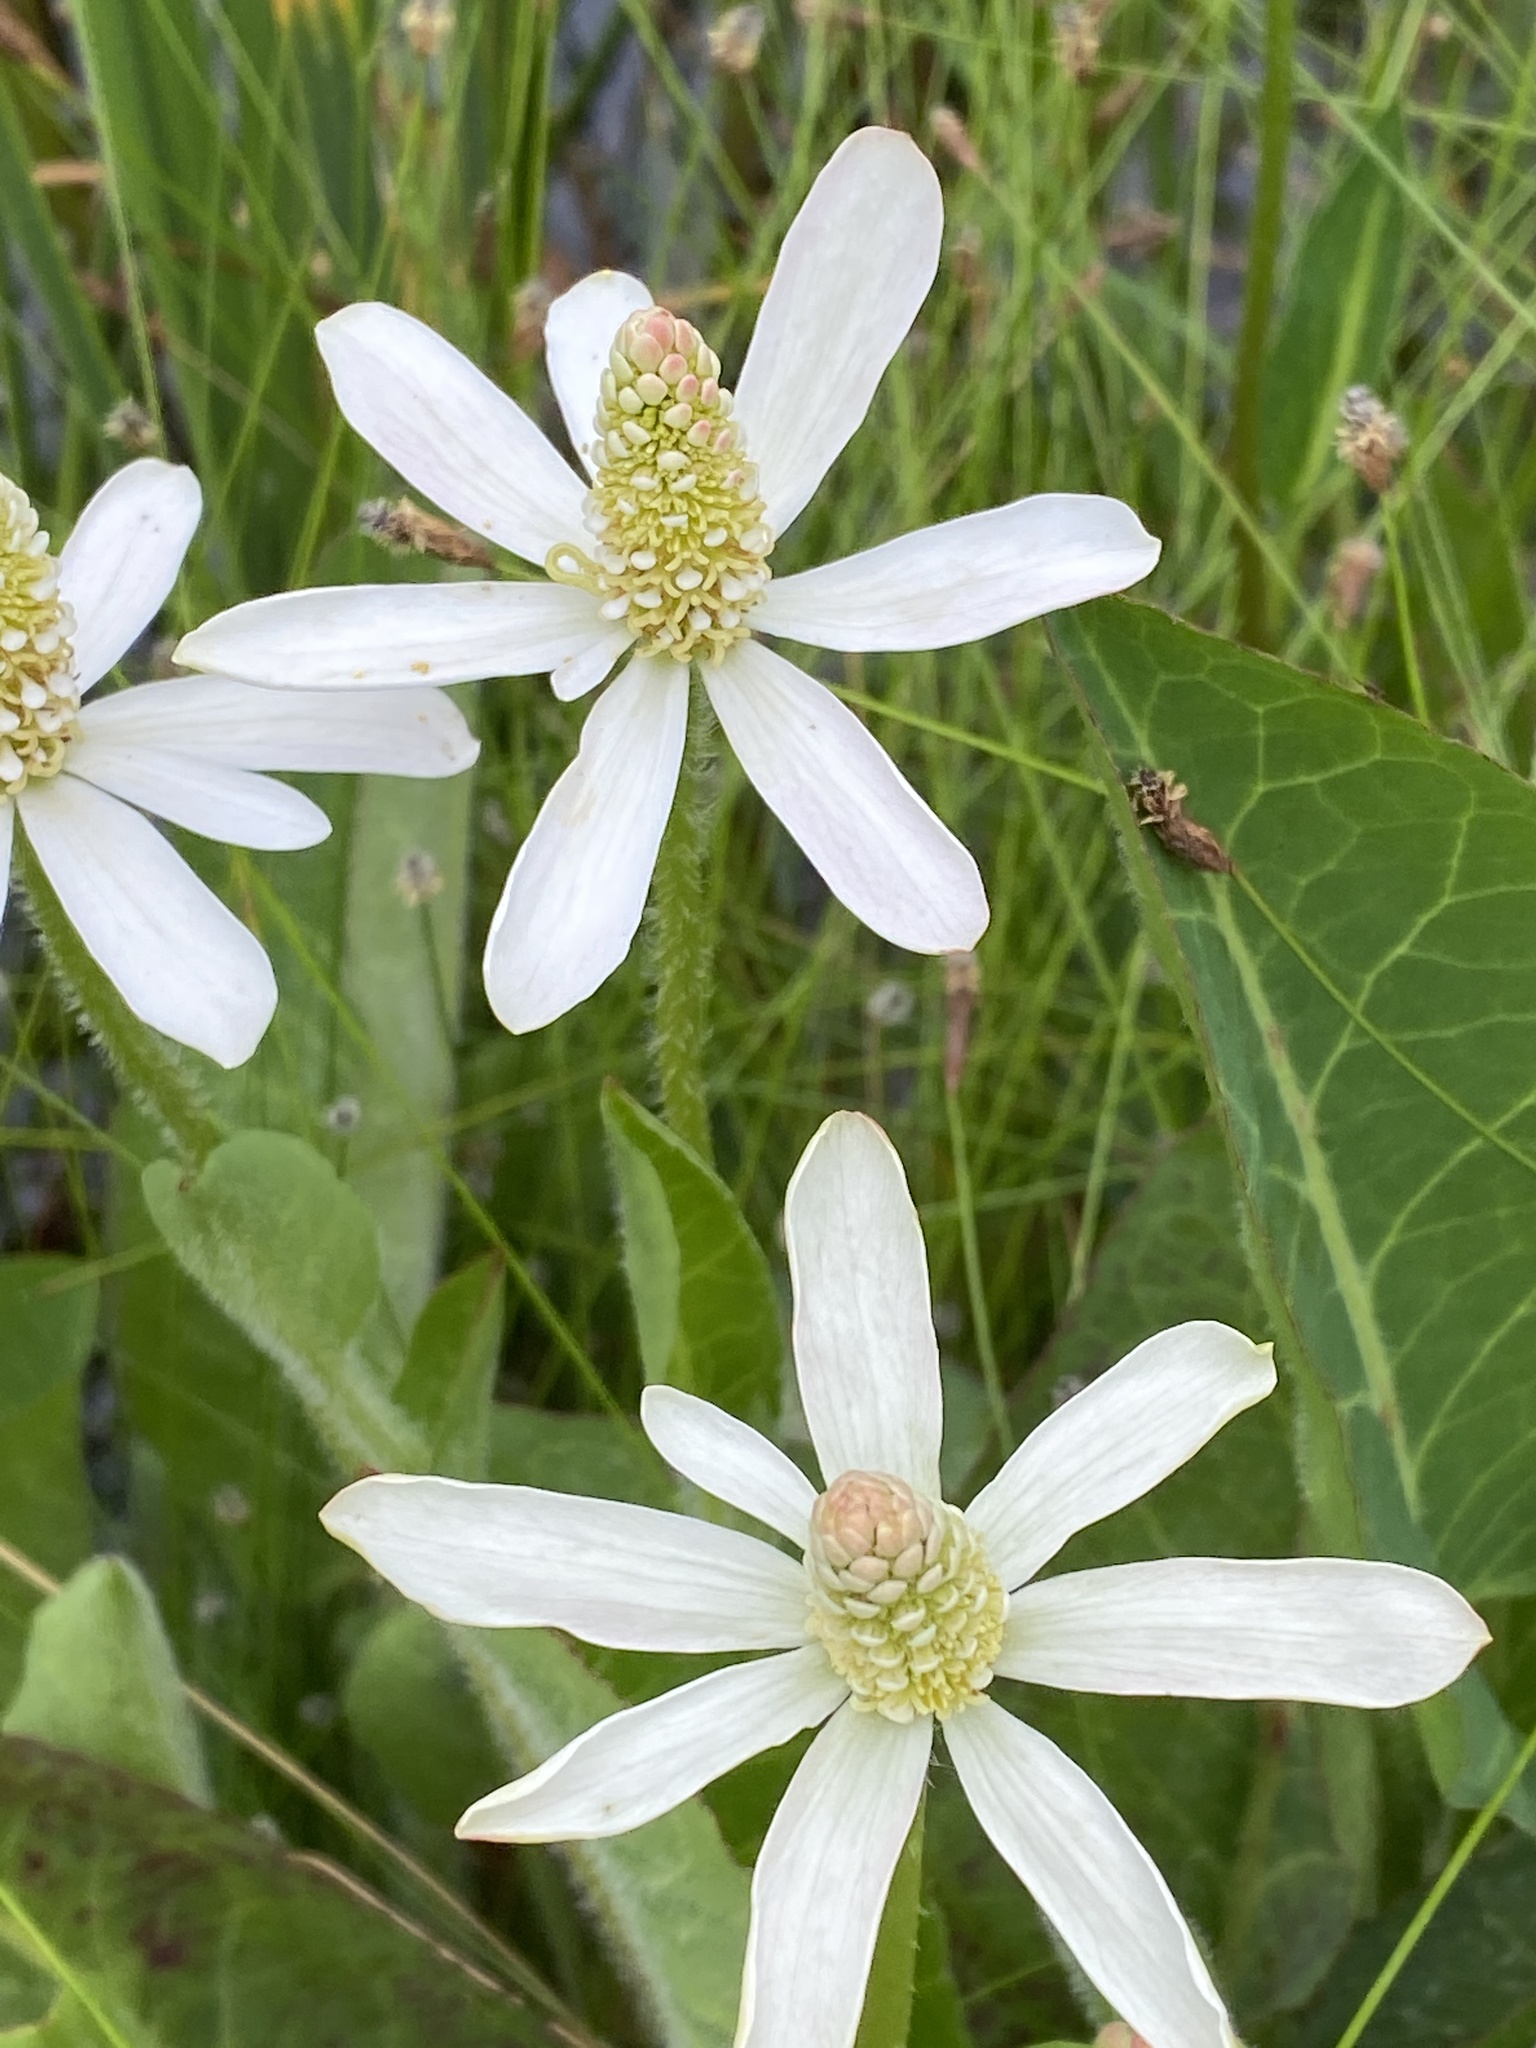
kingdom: Plantae
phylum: Tracheophyta
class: Magnoliopsida
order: Piperales
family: Saururaceae
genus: Anemopsis
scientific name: Anemopsis californica
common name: Apache-beads
